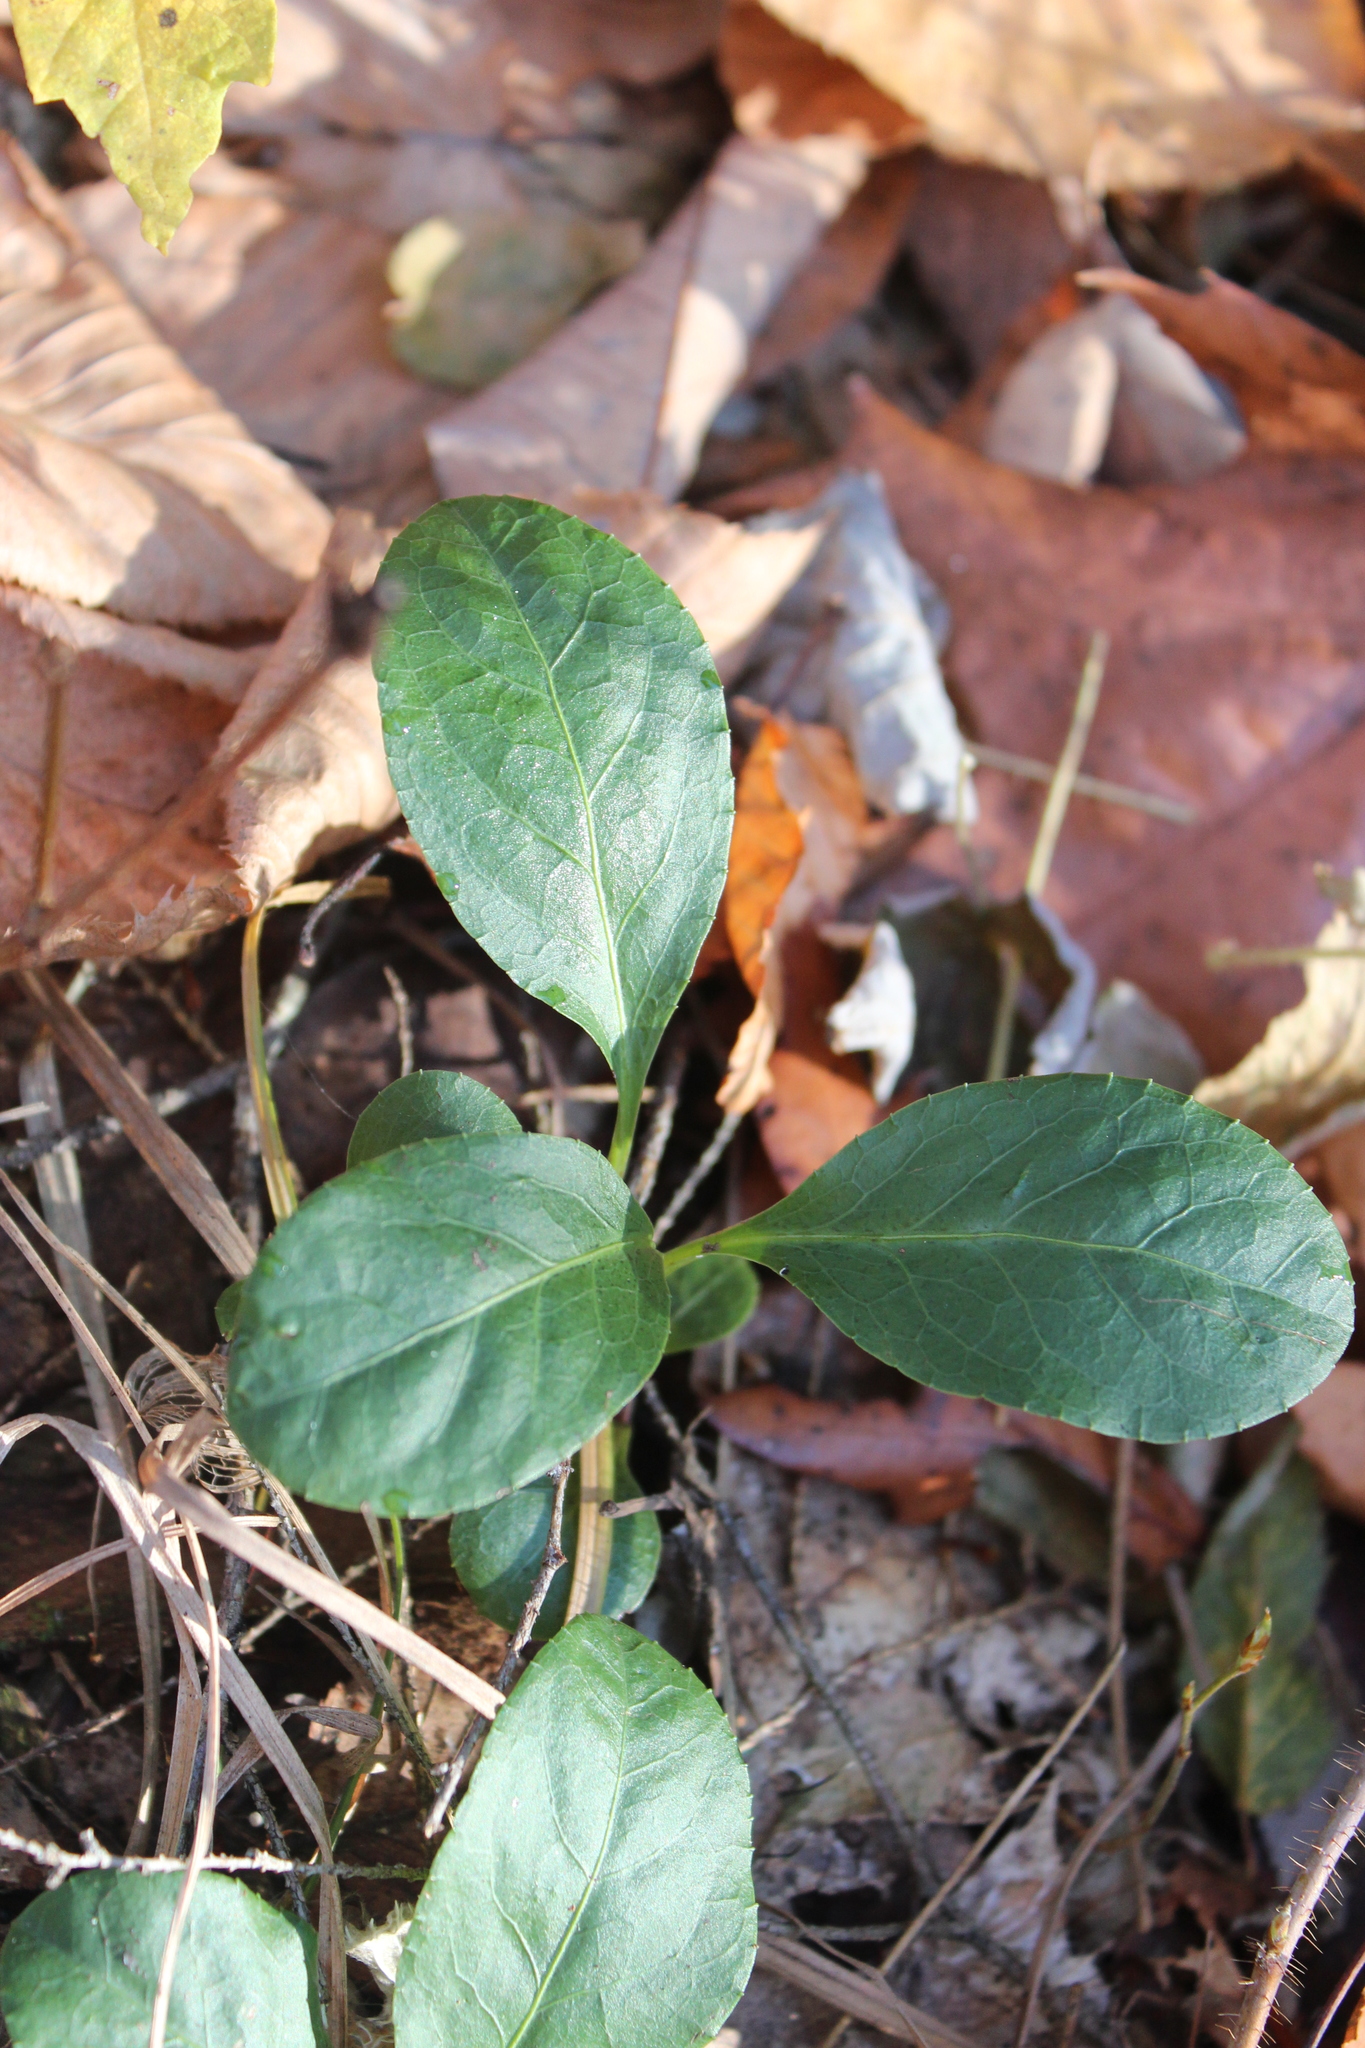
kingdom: Plantae
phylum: Tracheophyta
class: Magnoliopsida
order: Ericales
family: Ericaceae
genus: Pyrola
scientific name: Pyrola elliptica
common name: Shinleaf
